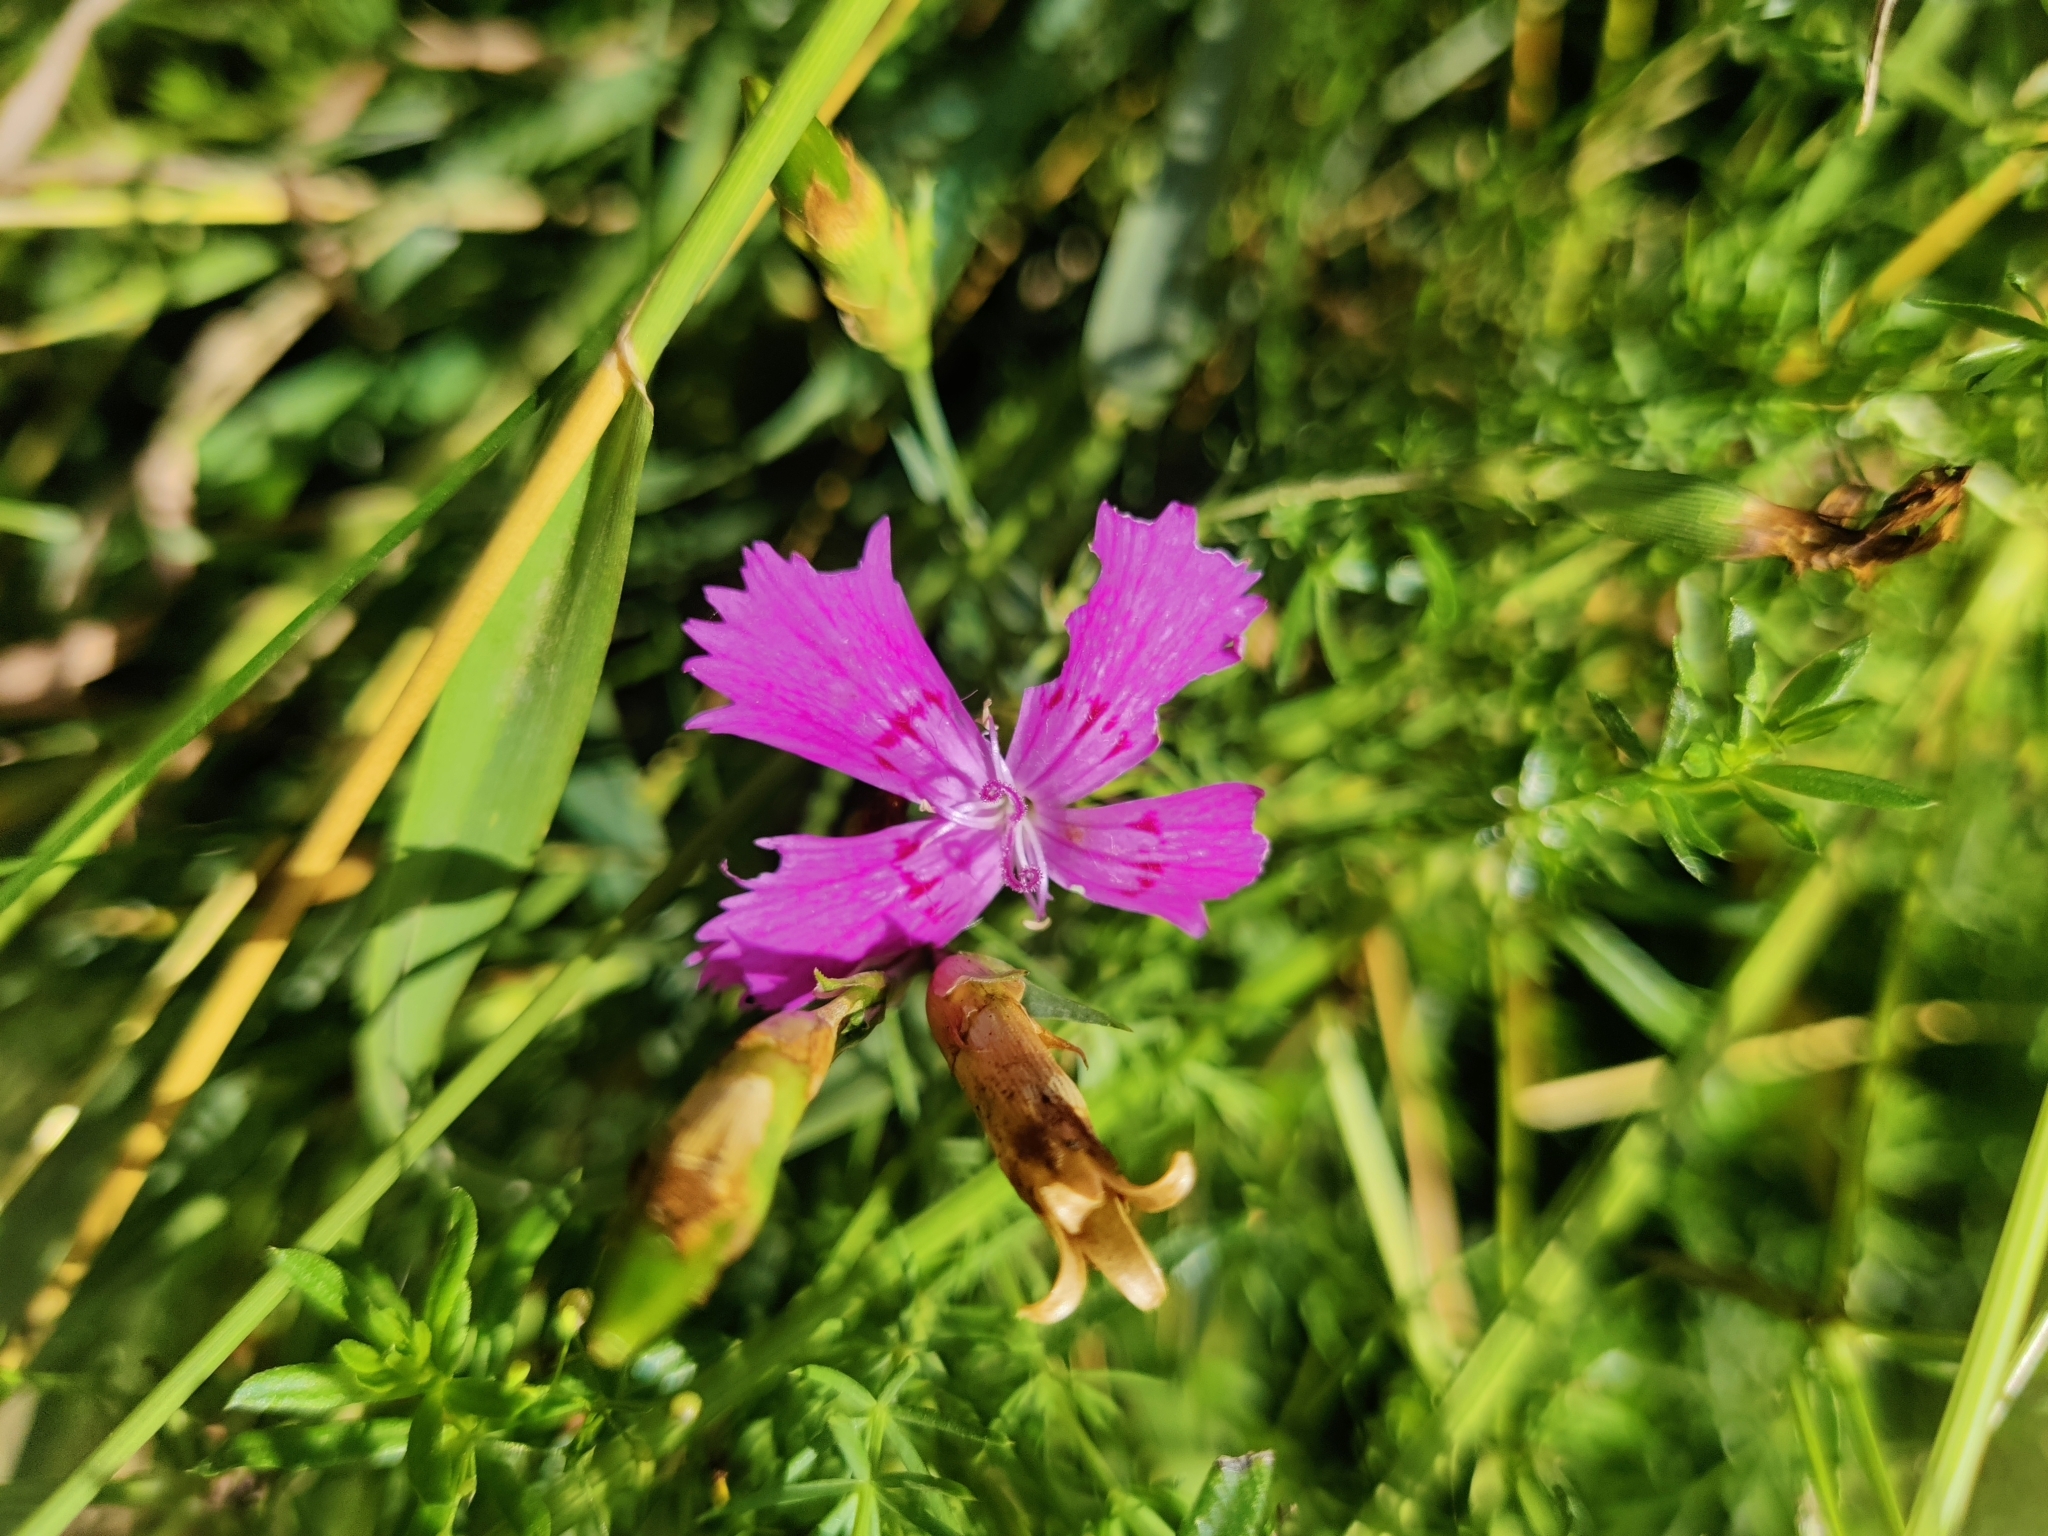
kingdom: Plantae
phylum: Tracheophyta
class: Magnoliopsida
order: Caryophyllales
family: Caryophyllaceae
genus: Dianthus
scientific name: Dianthus deltoides
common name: Maiden pink
